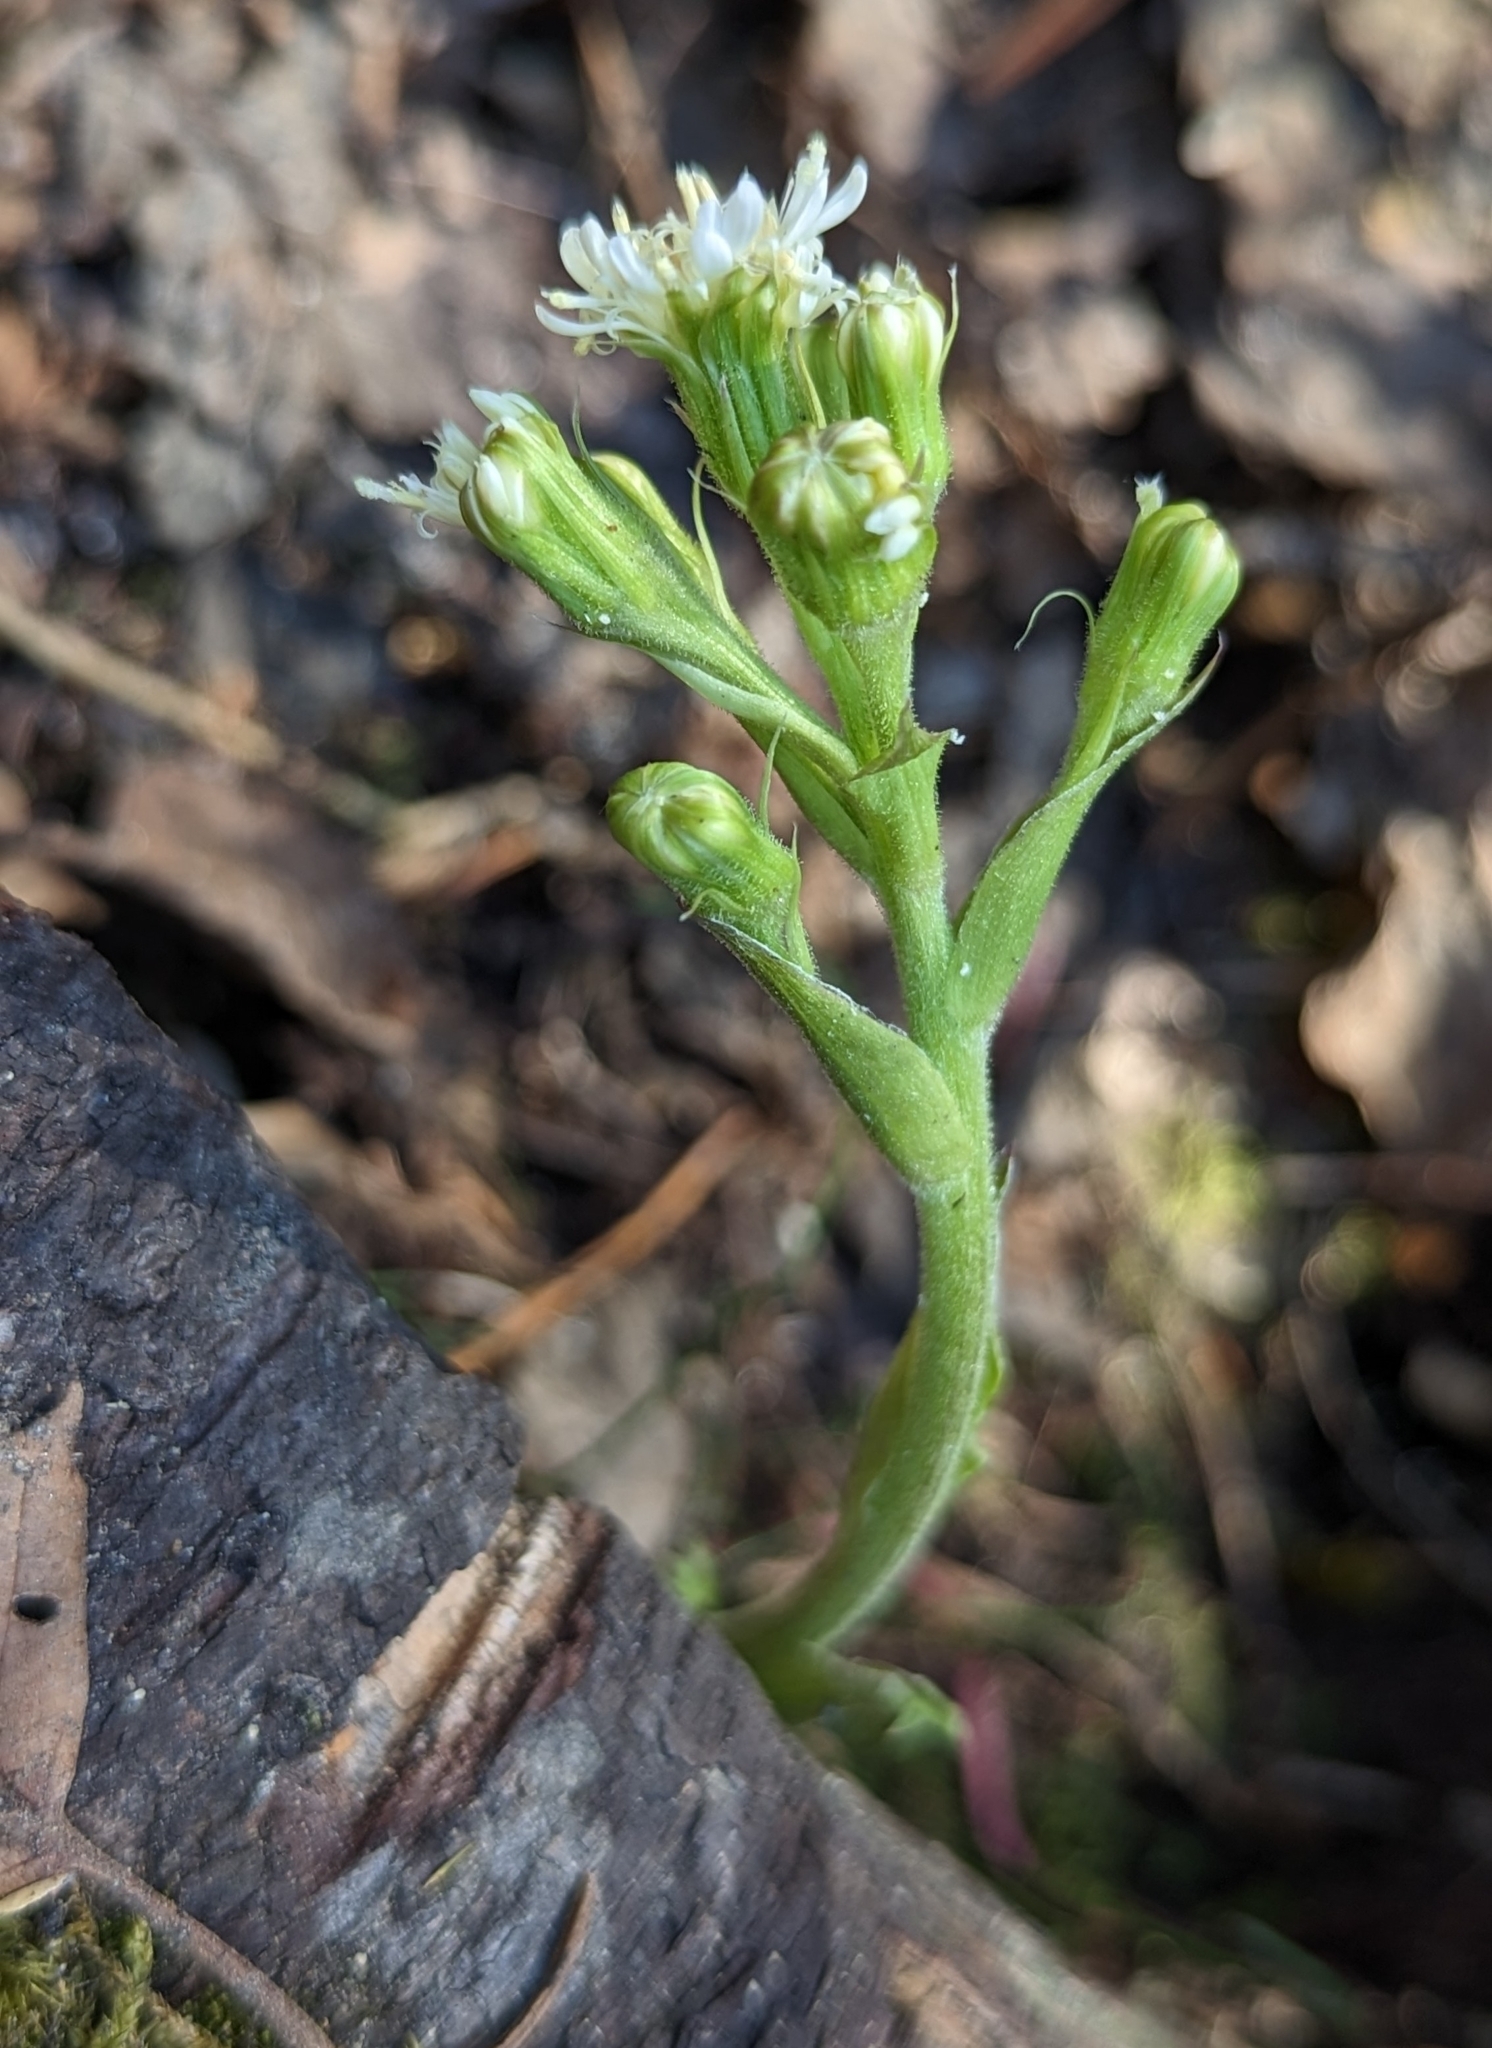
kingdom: Plantae
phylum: Tracheophyta
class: Magnoliopsida
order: Asterales
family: Asteraceae
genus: Petasites
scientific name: Petasites frigidus
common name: Arctic butterbur
